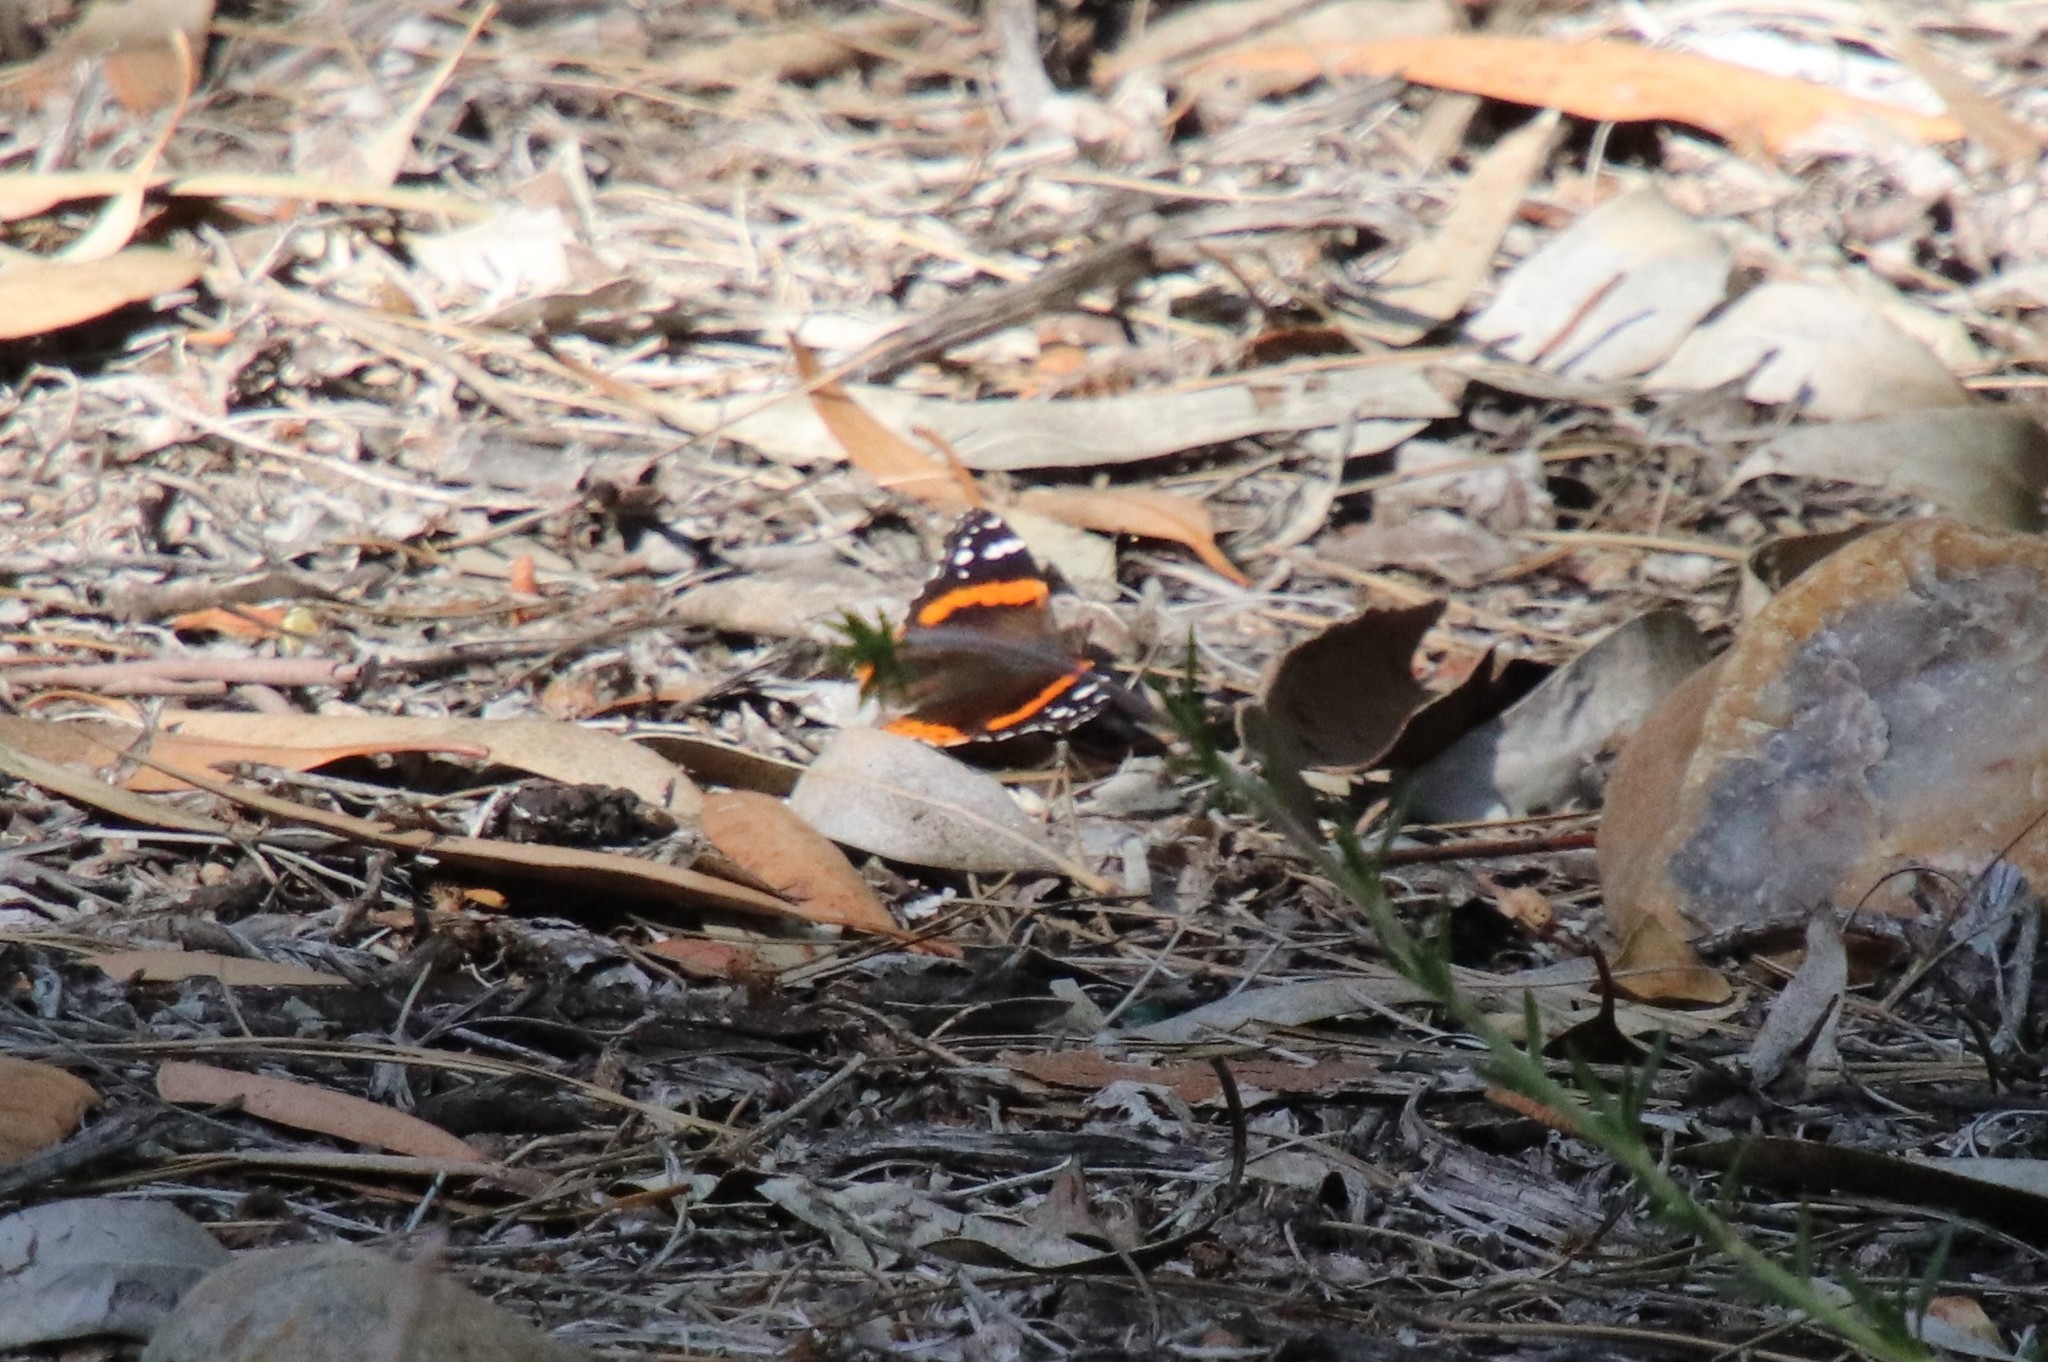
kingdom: Animalia
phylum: Arthropoda
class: Insecta
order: Lepidoptera
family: Nymphalidae
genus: Vanessa
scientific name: Vanessa atalanta
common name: Red admiral
